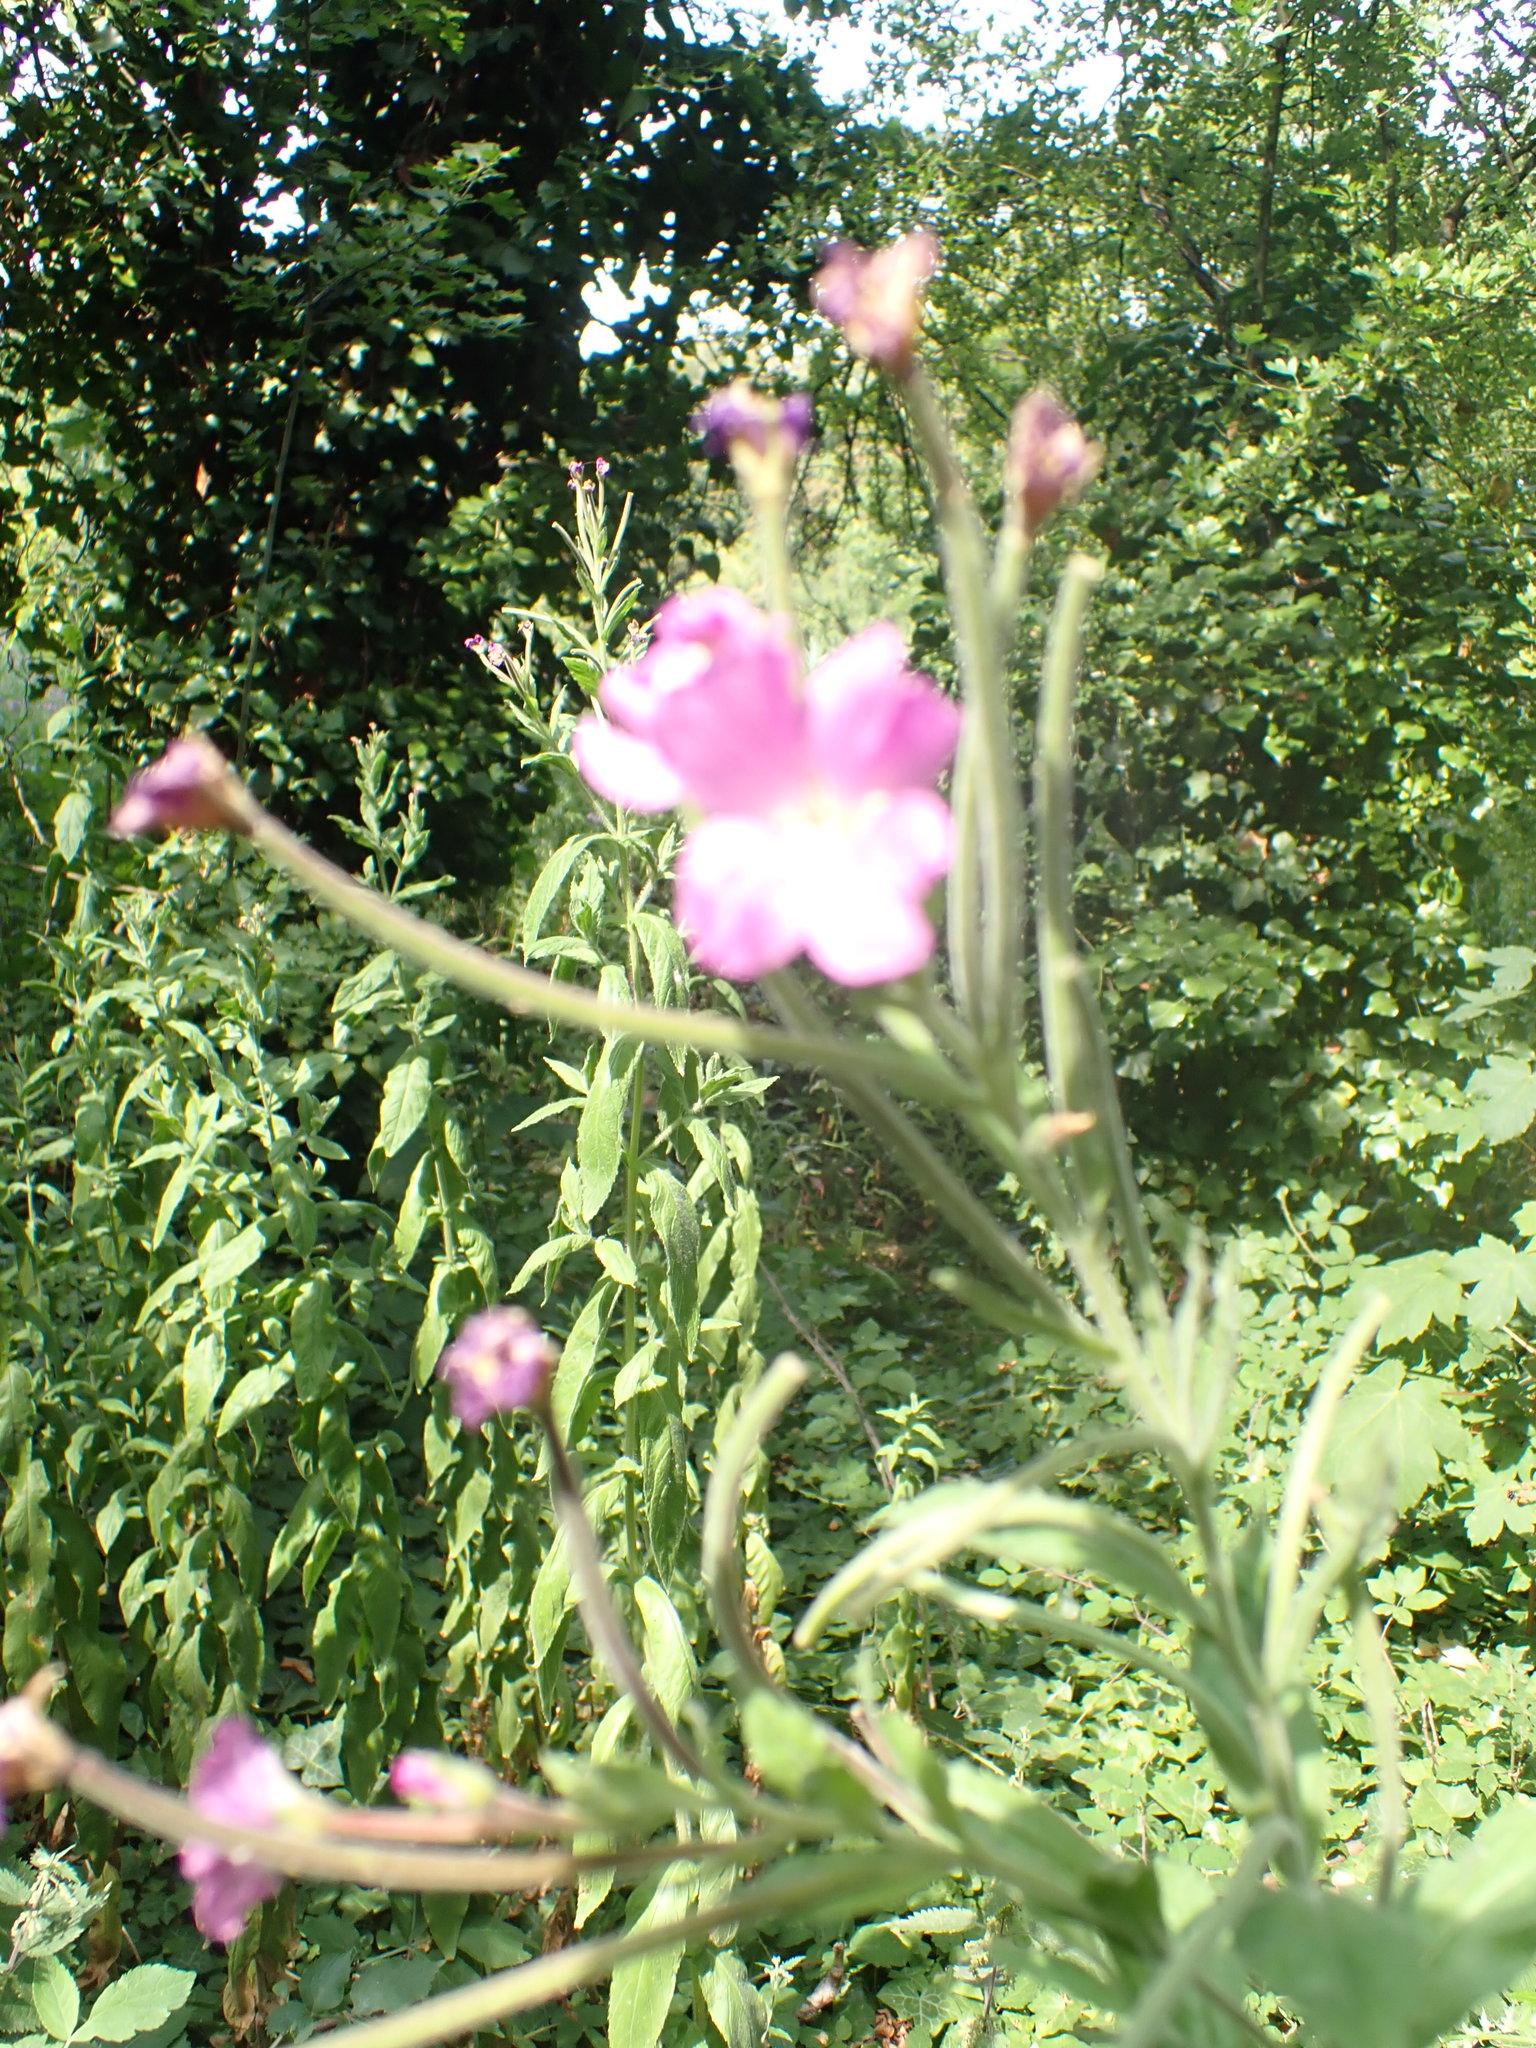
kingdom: Plantae
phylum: Tracheophyta
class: Magnoliopsida
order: Myrtales
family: Onagraceae
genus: Epilobium
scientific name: Epilobium hirsutum
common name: Great willowherb
